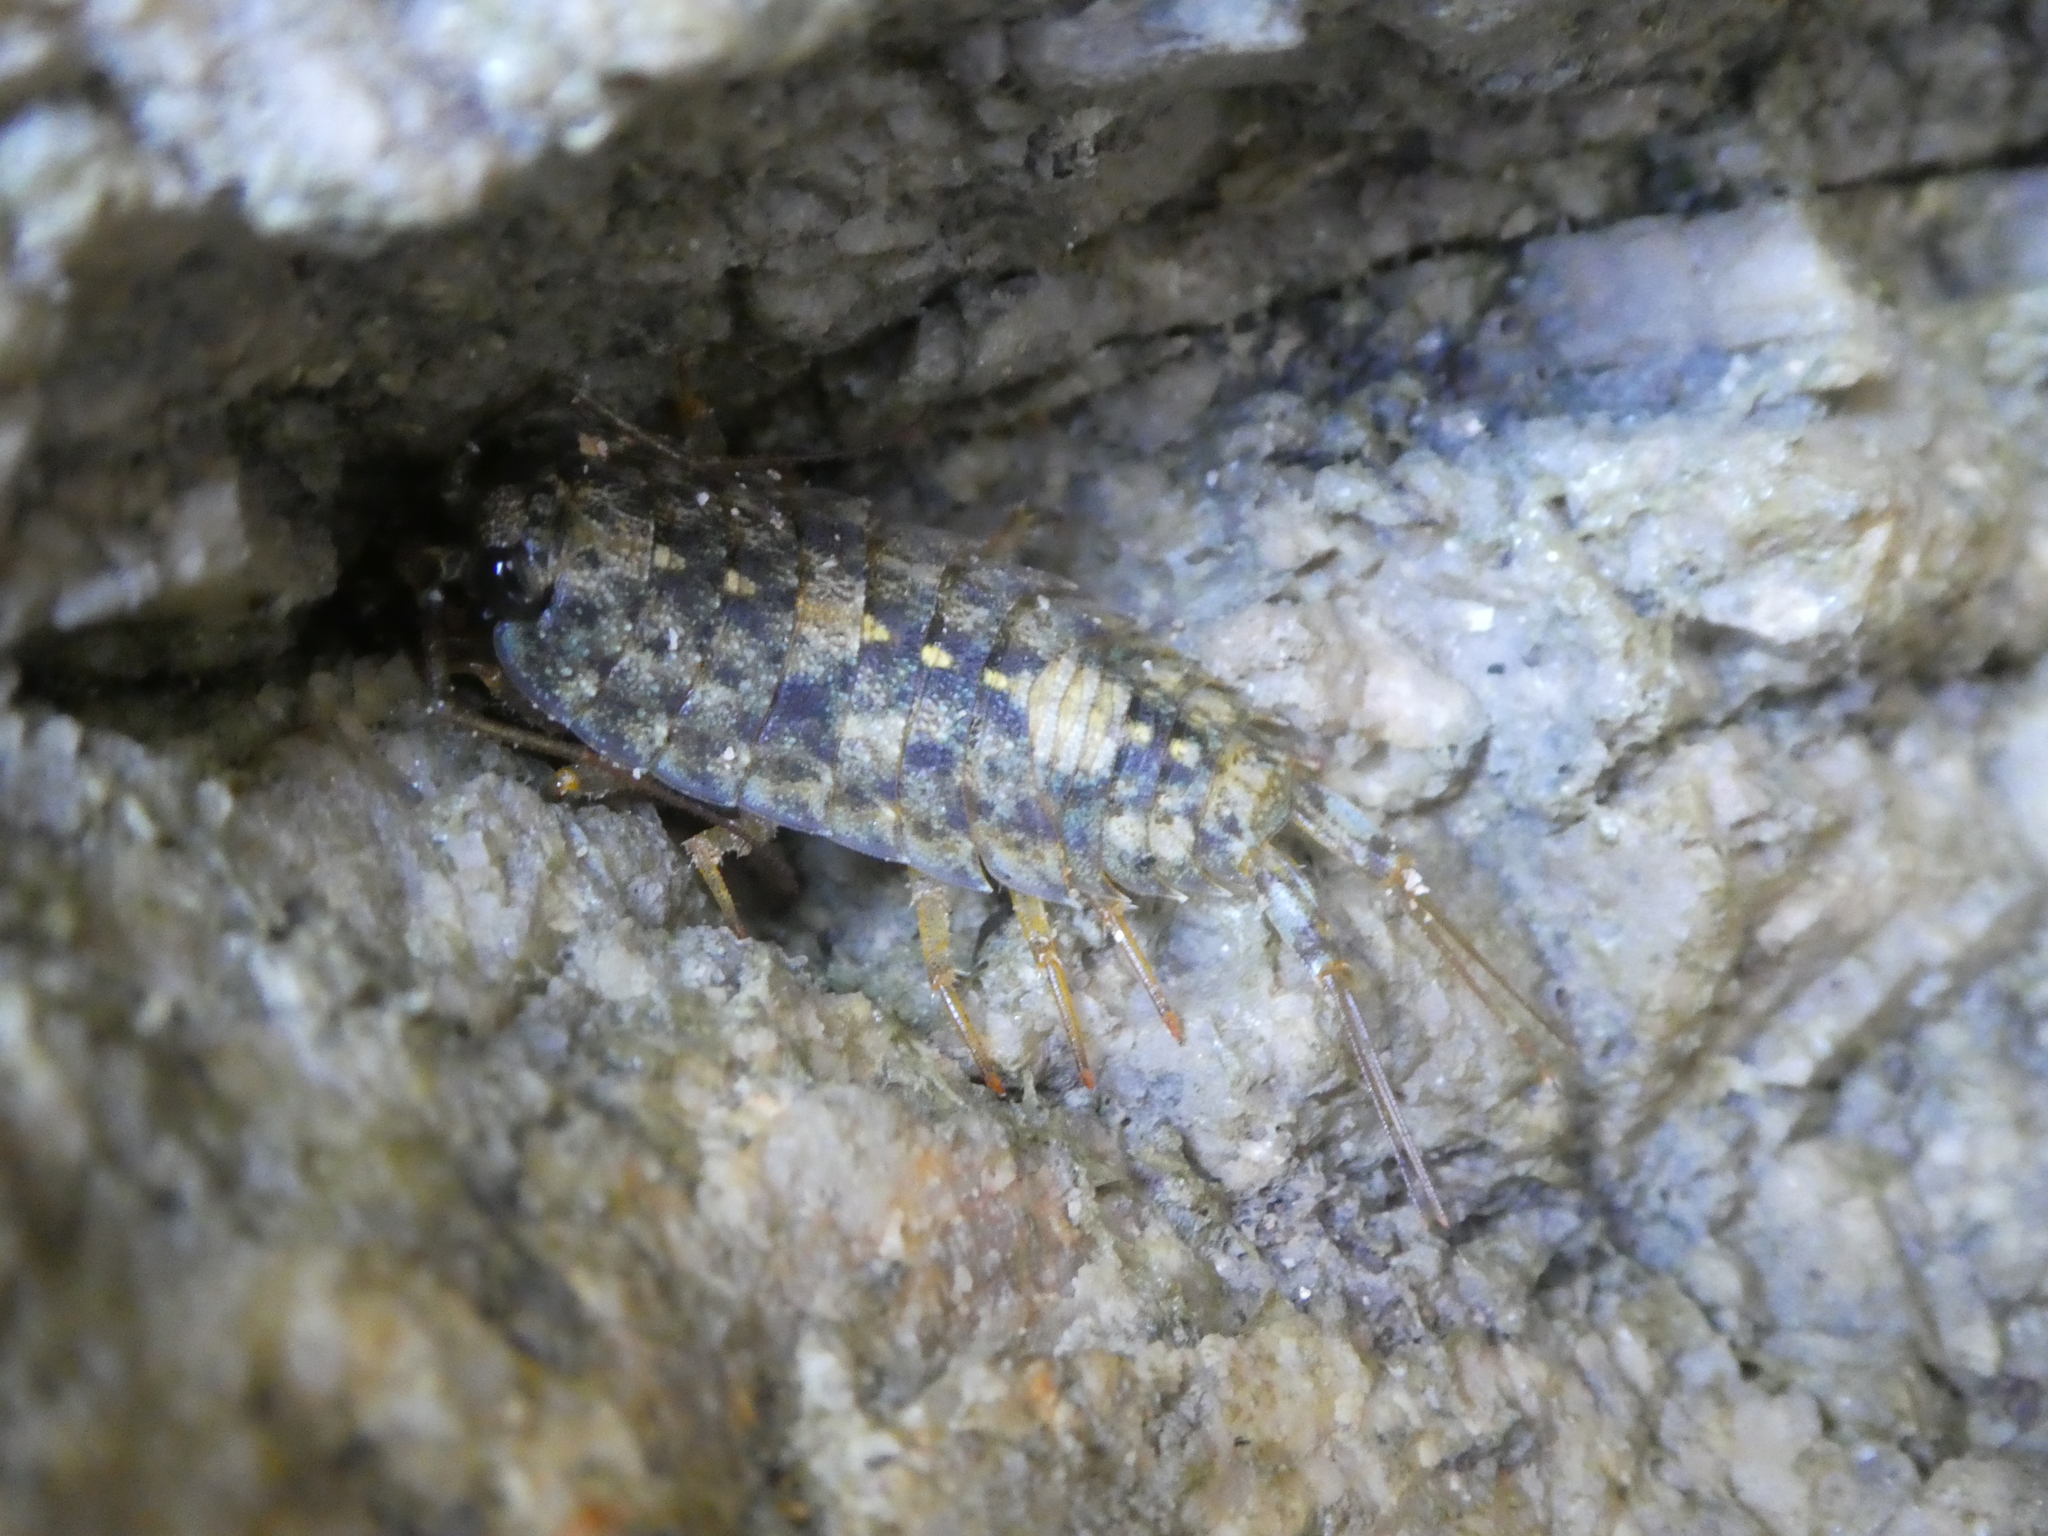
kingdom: Animalia
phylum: Arthropoda
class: Malacostraca
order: Isopoda
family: Ligiidae
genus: Ligia
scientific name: Ligia occidentalis
